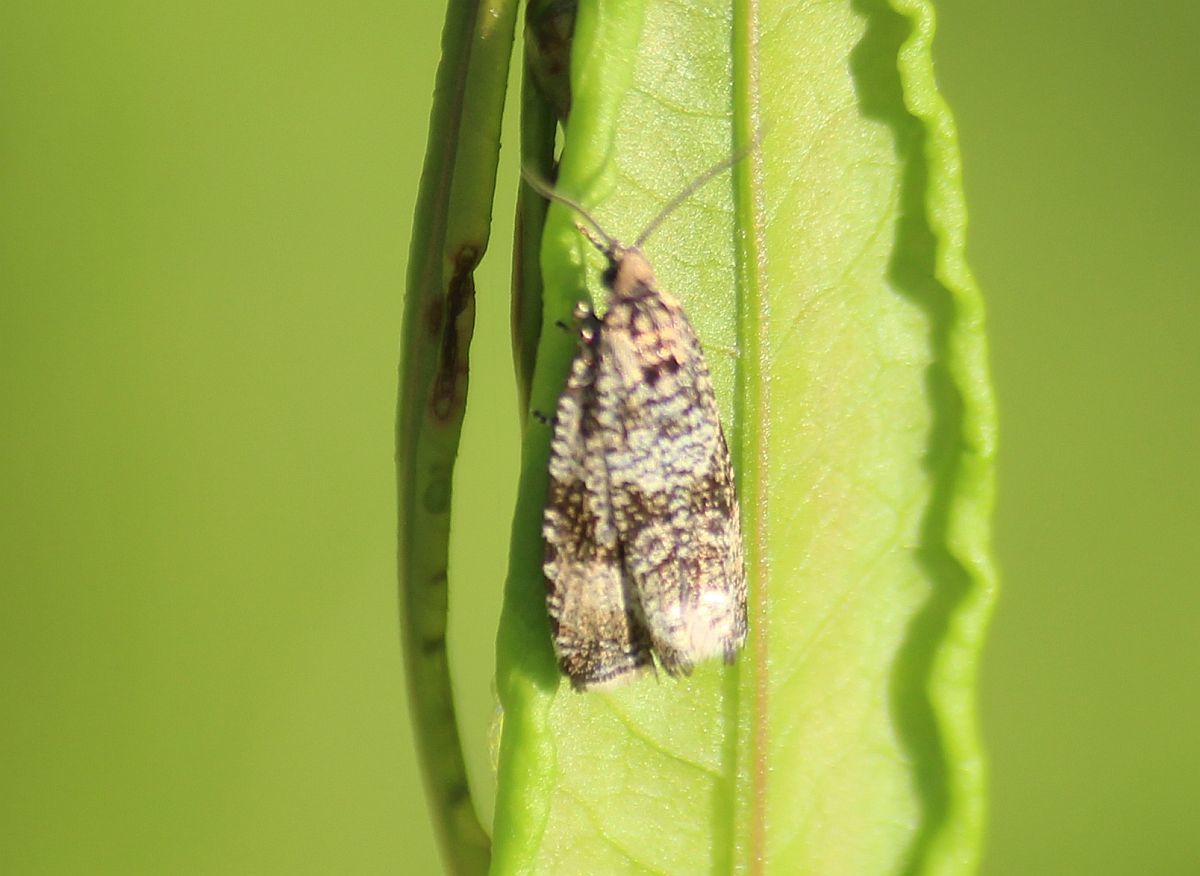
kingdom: Animalia
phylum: Arthropoda
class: Insecta
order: Lepidoptera
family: Tortricidae
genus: Syricoris
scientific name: Syricoris lacunana
